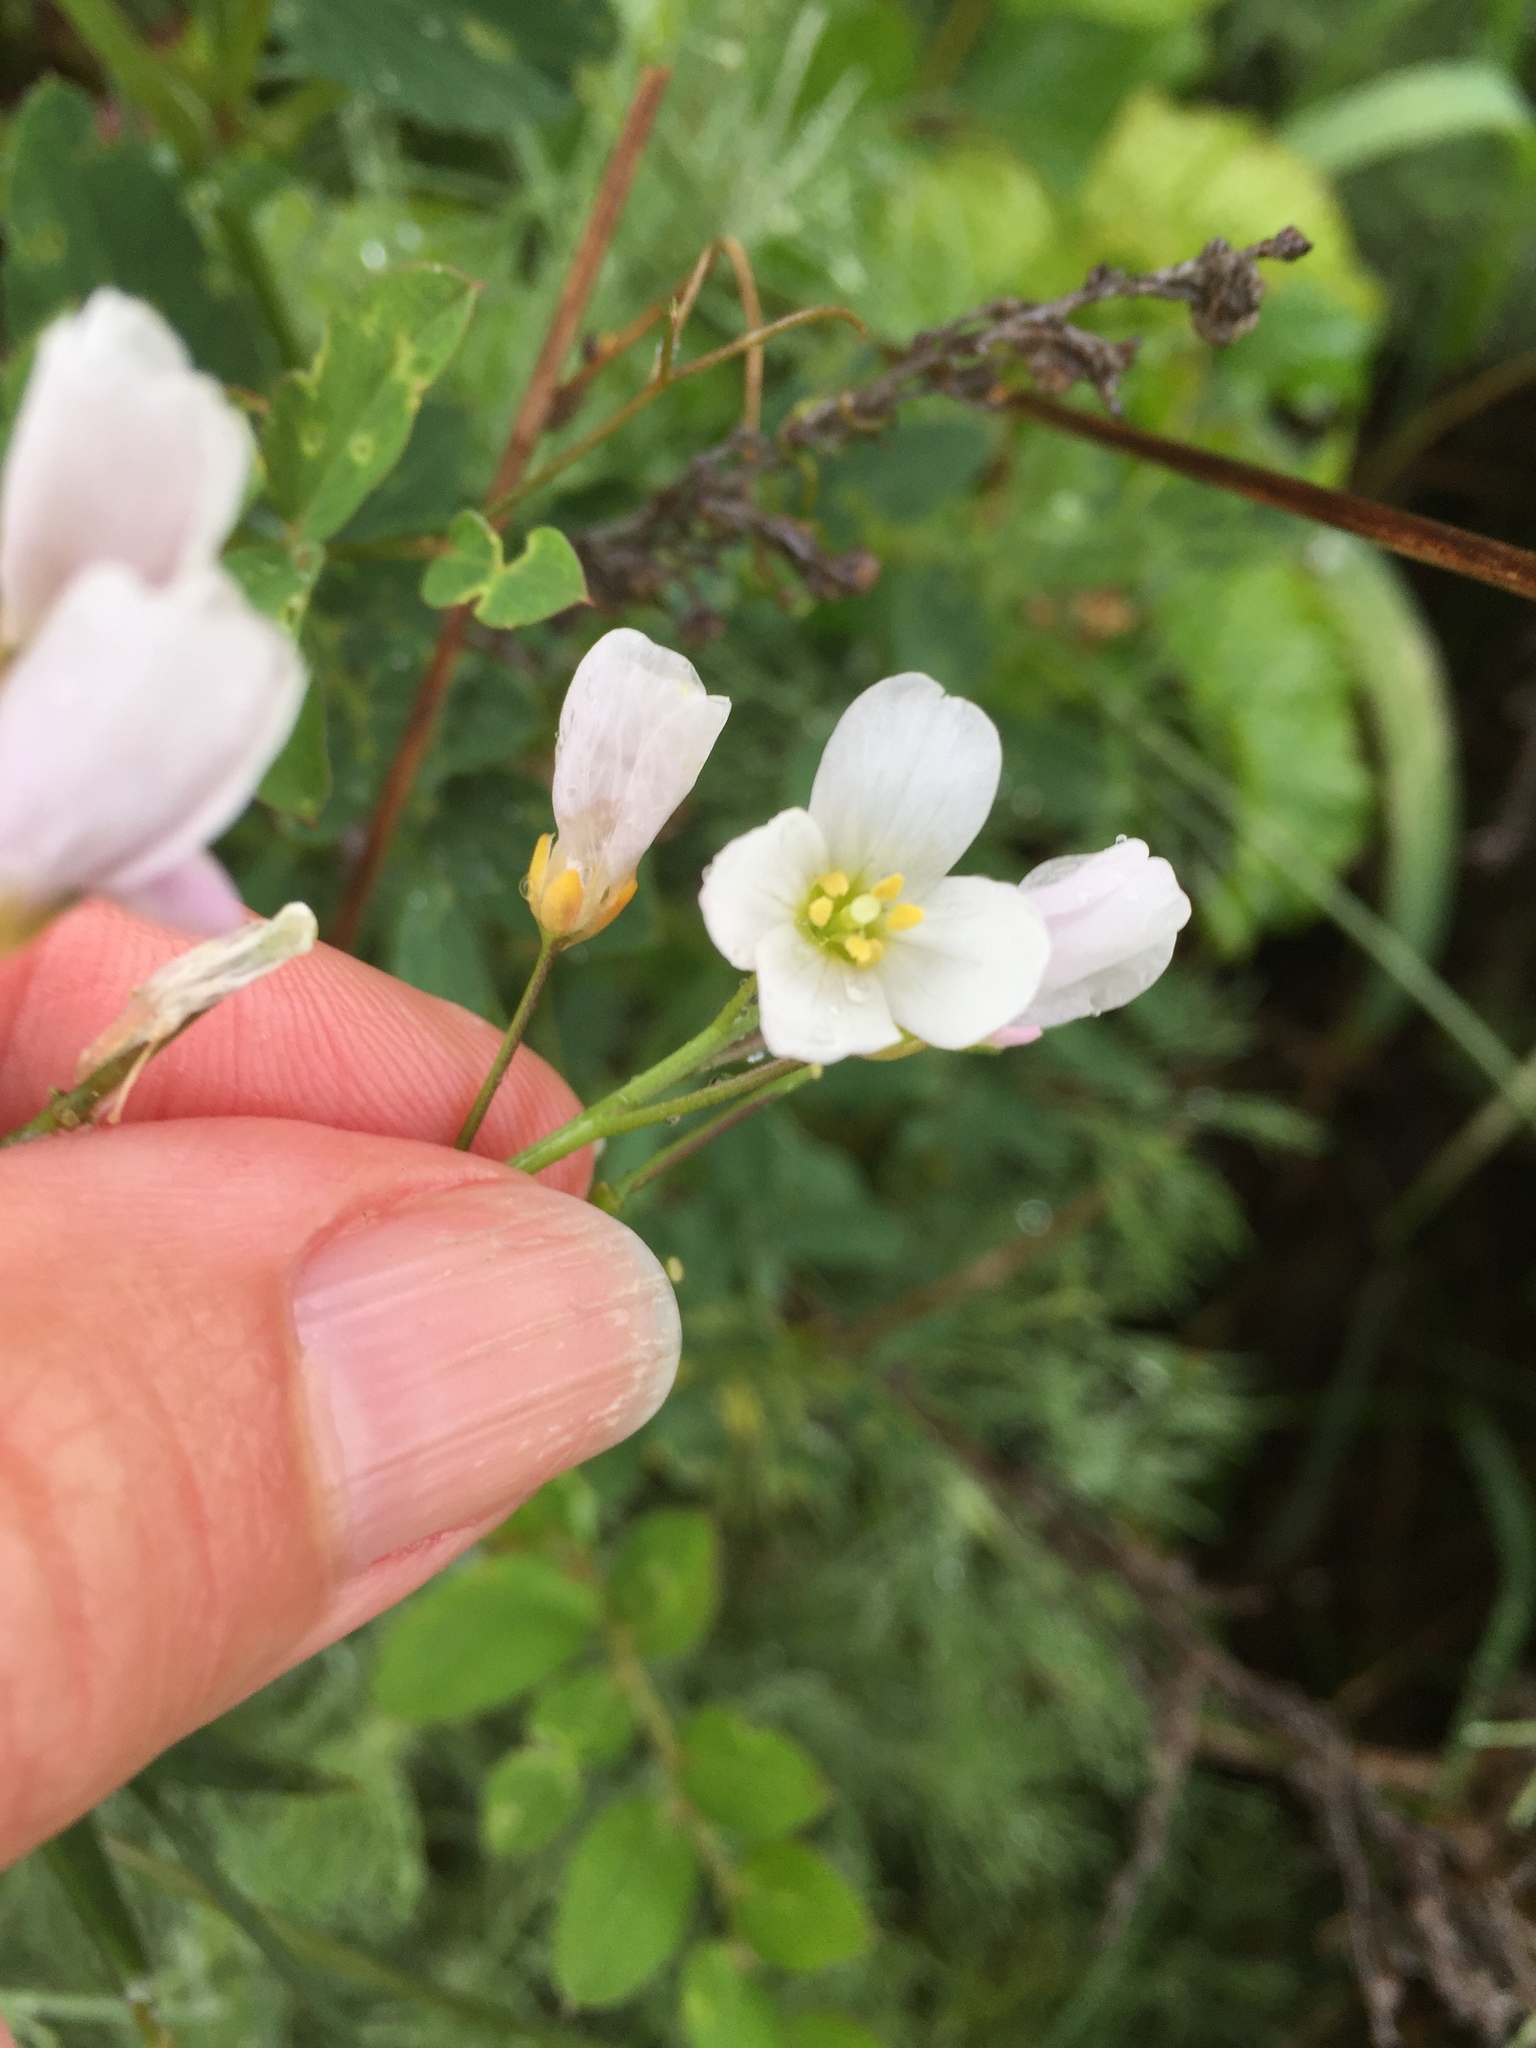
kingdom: Plantae
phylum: Tracheophyta
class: Magnoliopsida
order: Brassicales
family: Brassicaceae
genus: Cardamine
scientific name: Cardamine californica
